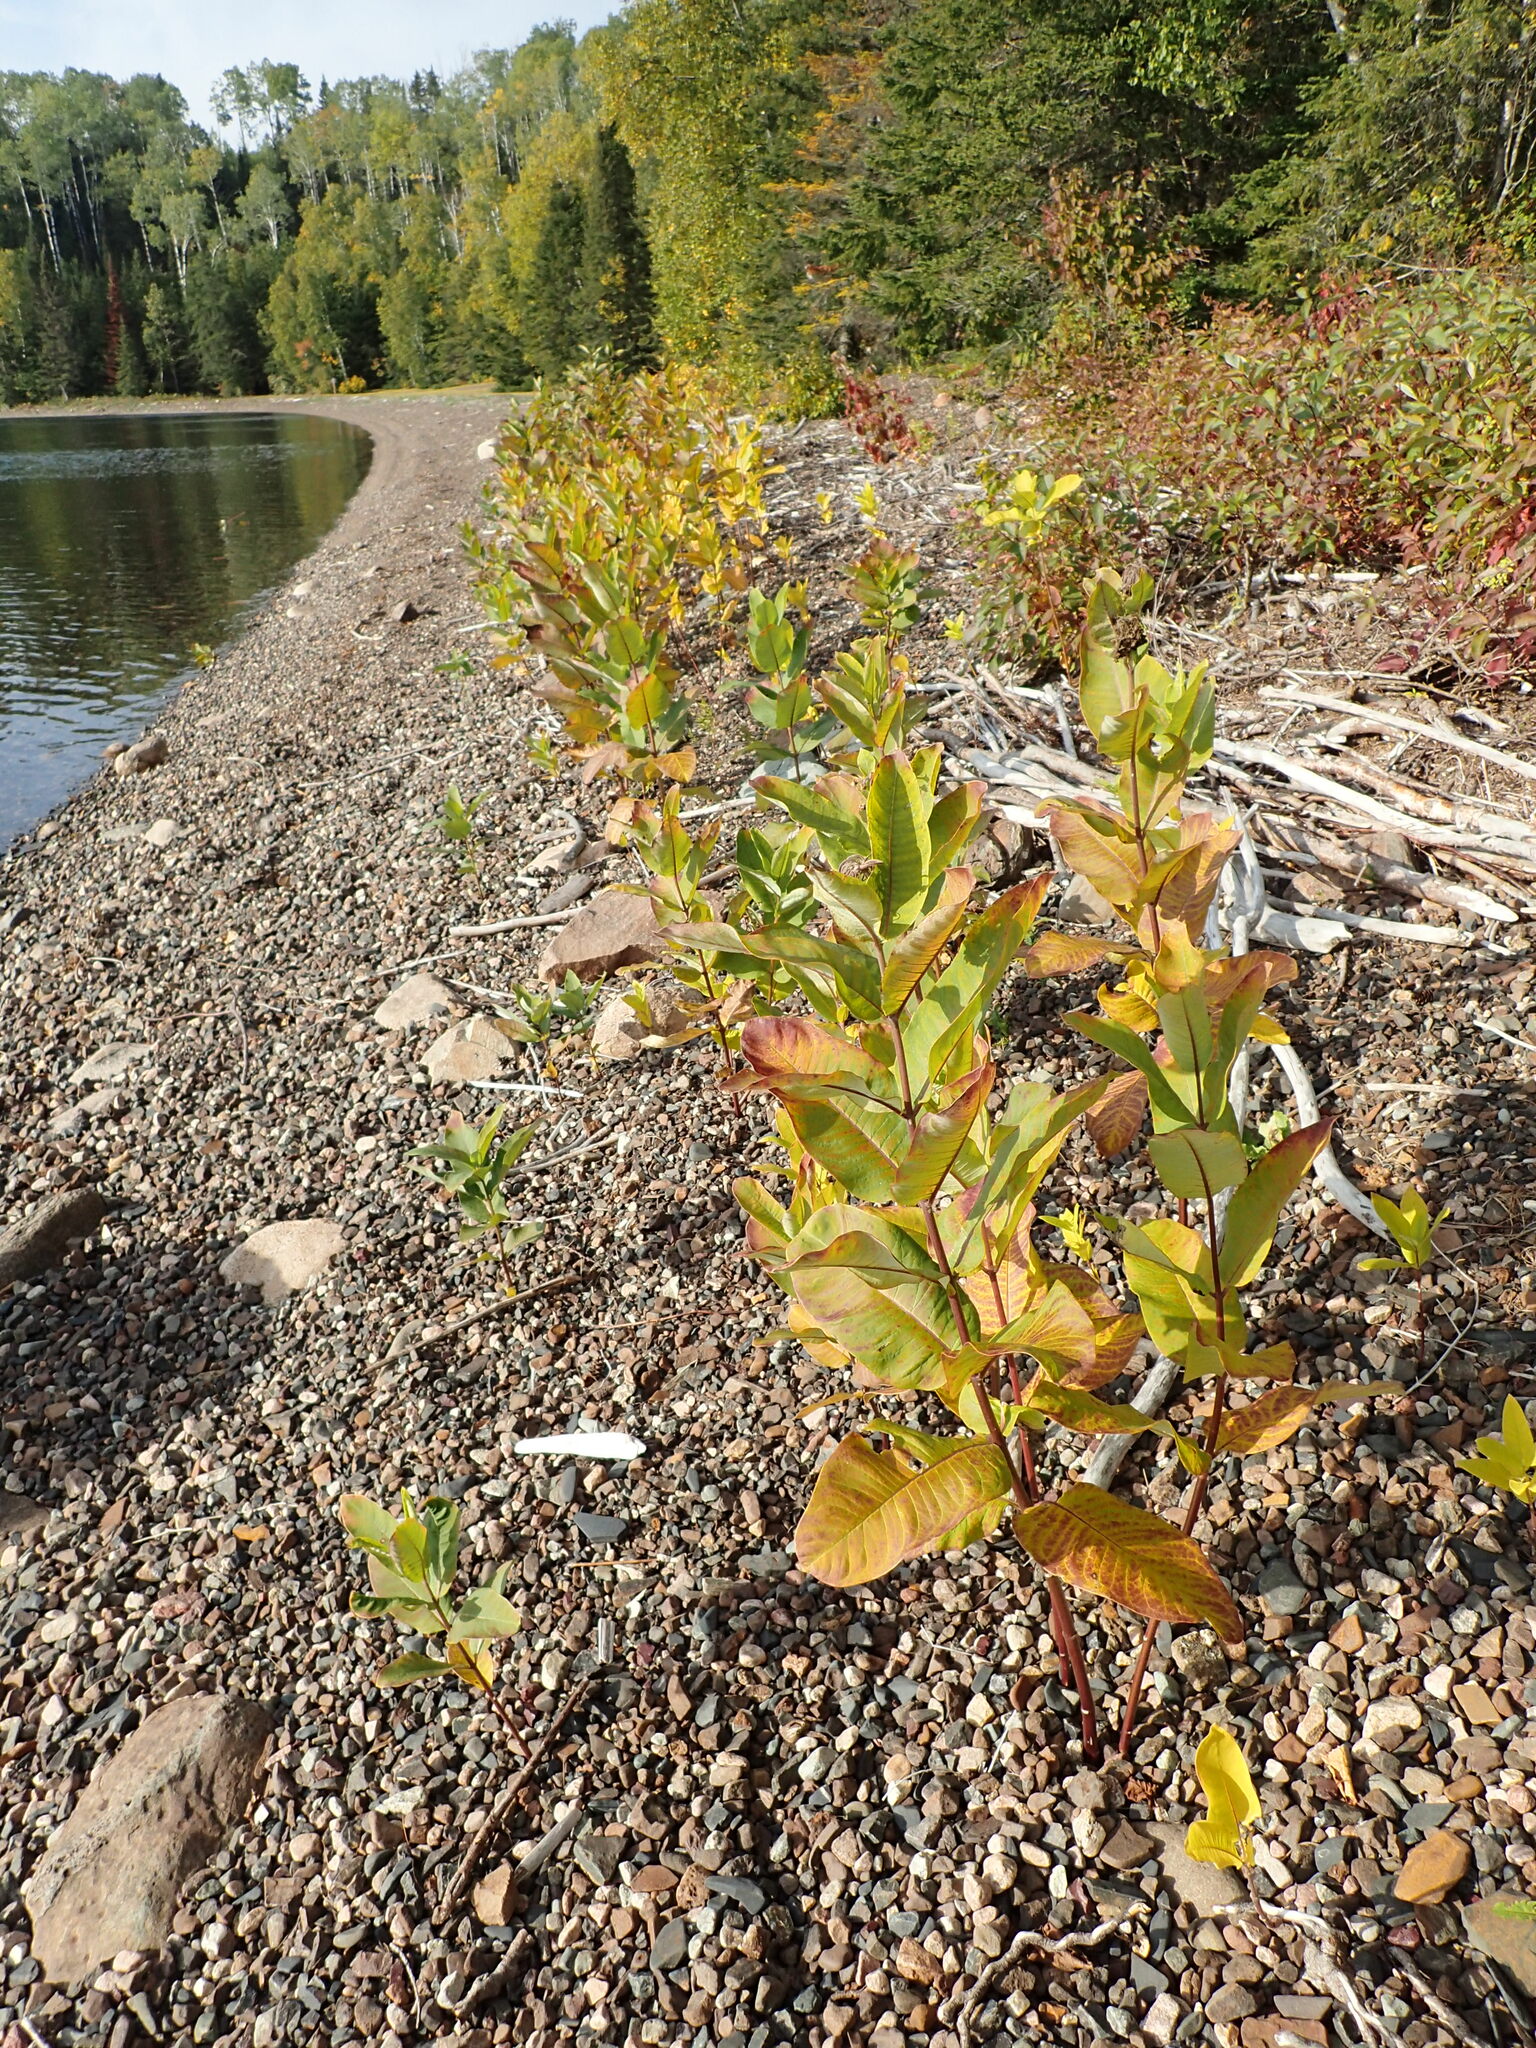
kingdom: Plantae
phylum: Tracheophyta
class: Magnoliopsida
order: Gentianales
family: Apocynaceae
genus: Asclepias
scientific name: Asclepias syriaca
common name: Common milkweed
